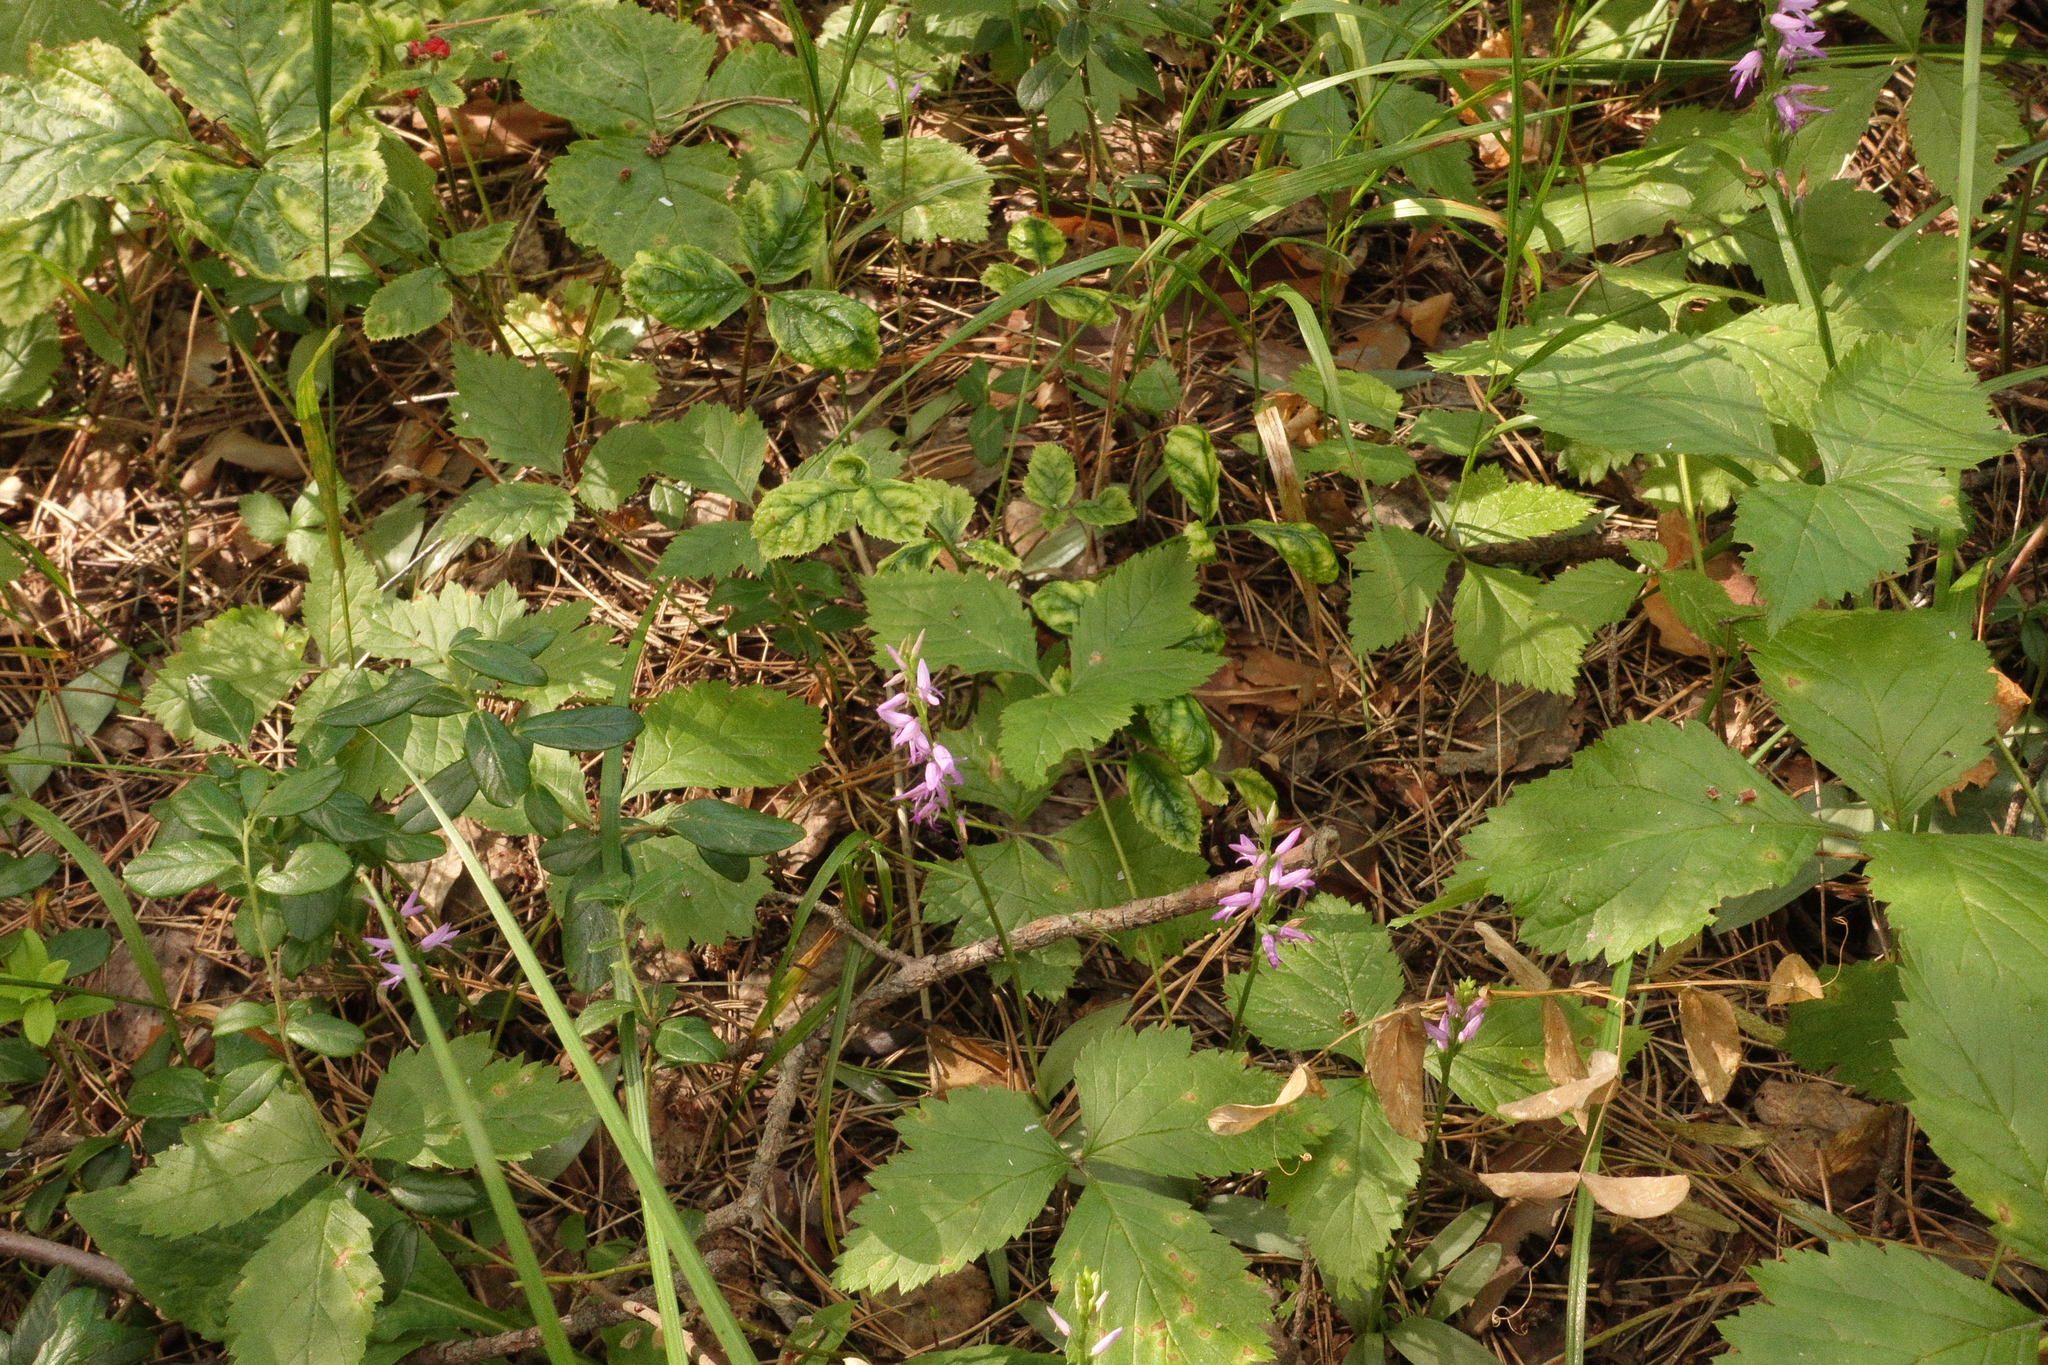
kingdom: Plantae
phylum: Tracheophyta
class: Liliopsida
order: Asparagales
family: Orchidaceae
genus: Hemipilia
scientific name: Hemipilia cucullata
